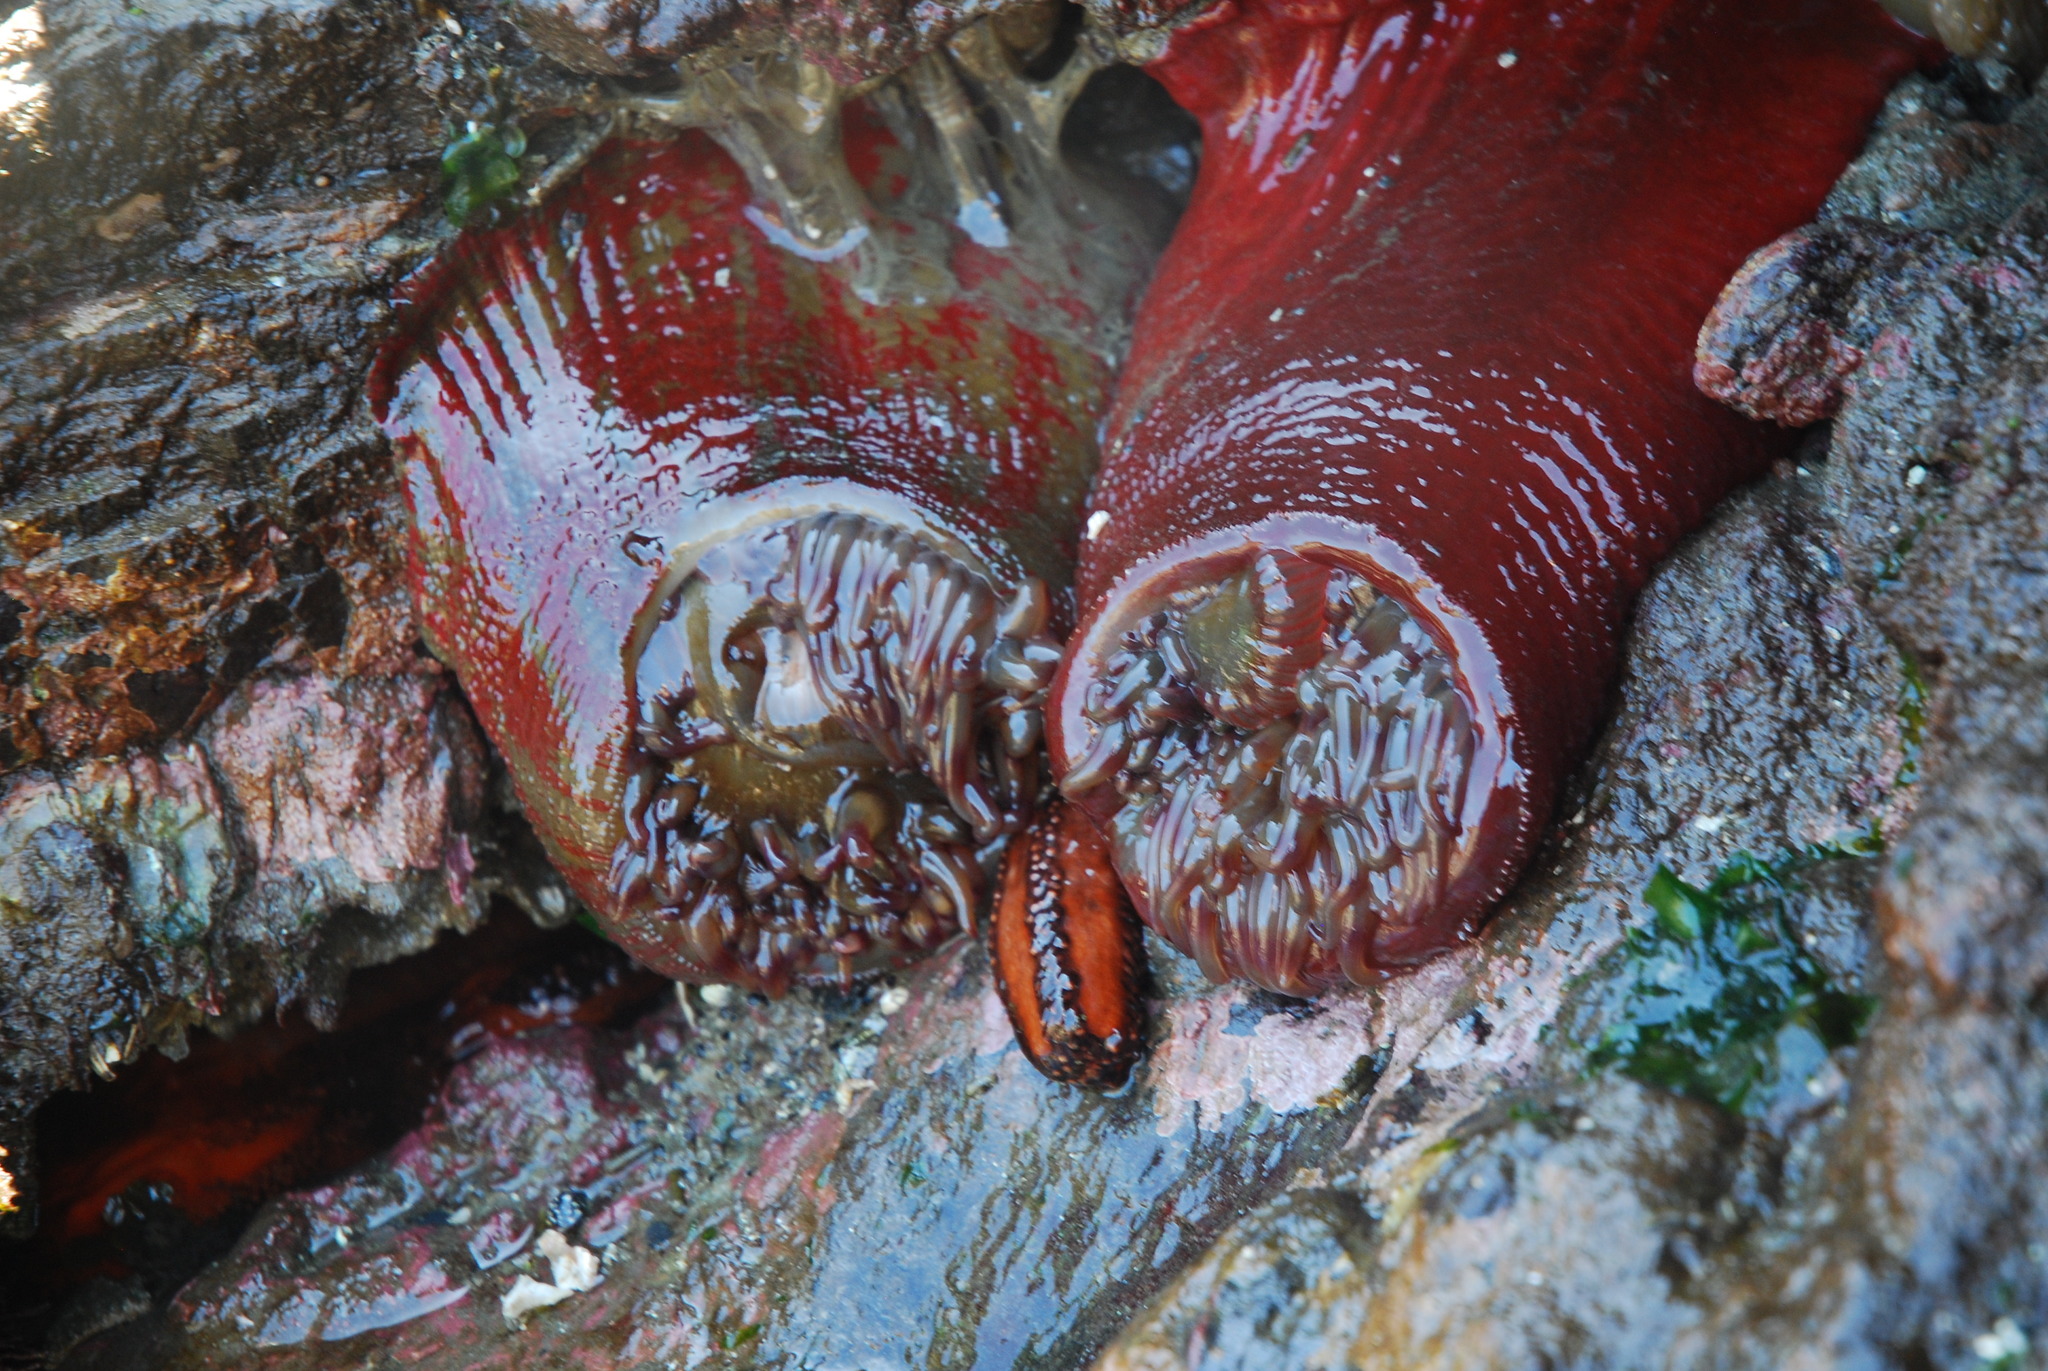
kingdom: Animalia
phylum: Cnidaria
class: Anthozoa
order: Actiniaria
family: Actiniidae
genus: Urticina
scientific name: Urticina grebelnyi
